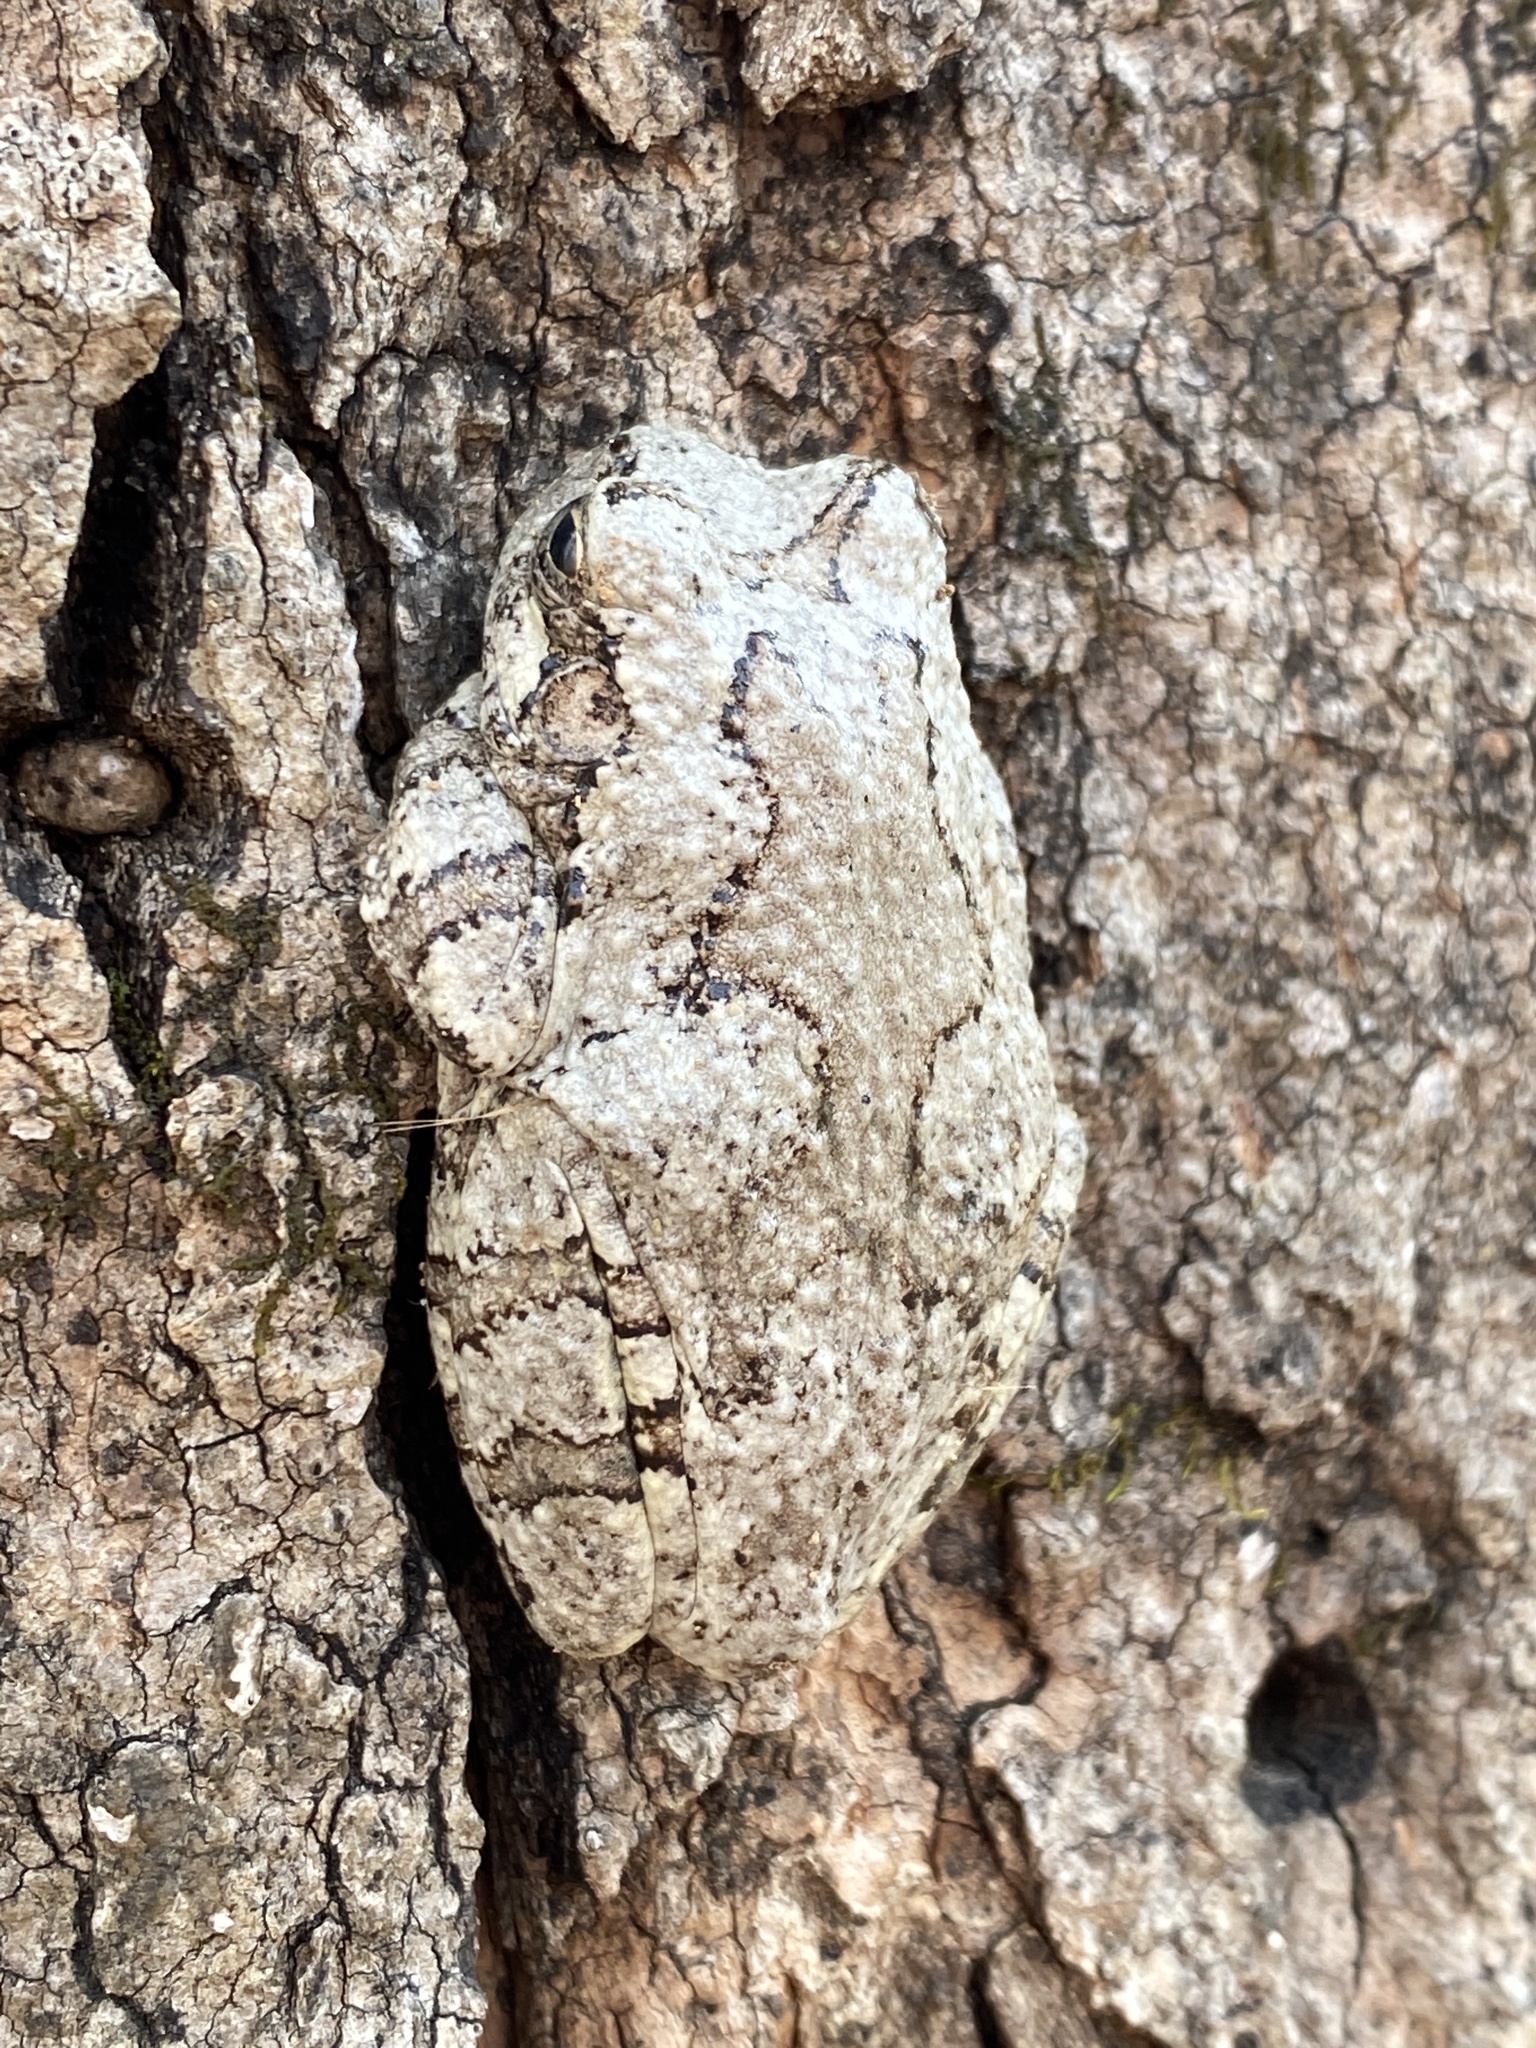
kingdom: Animalia
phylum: Chordata
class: Amphibia
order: Anura
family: Hylidae
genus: Dryophytes
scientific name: Dryophytes chrysoscelis
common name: Cope's gray treefrog
